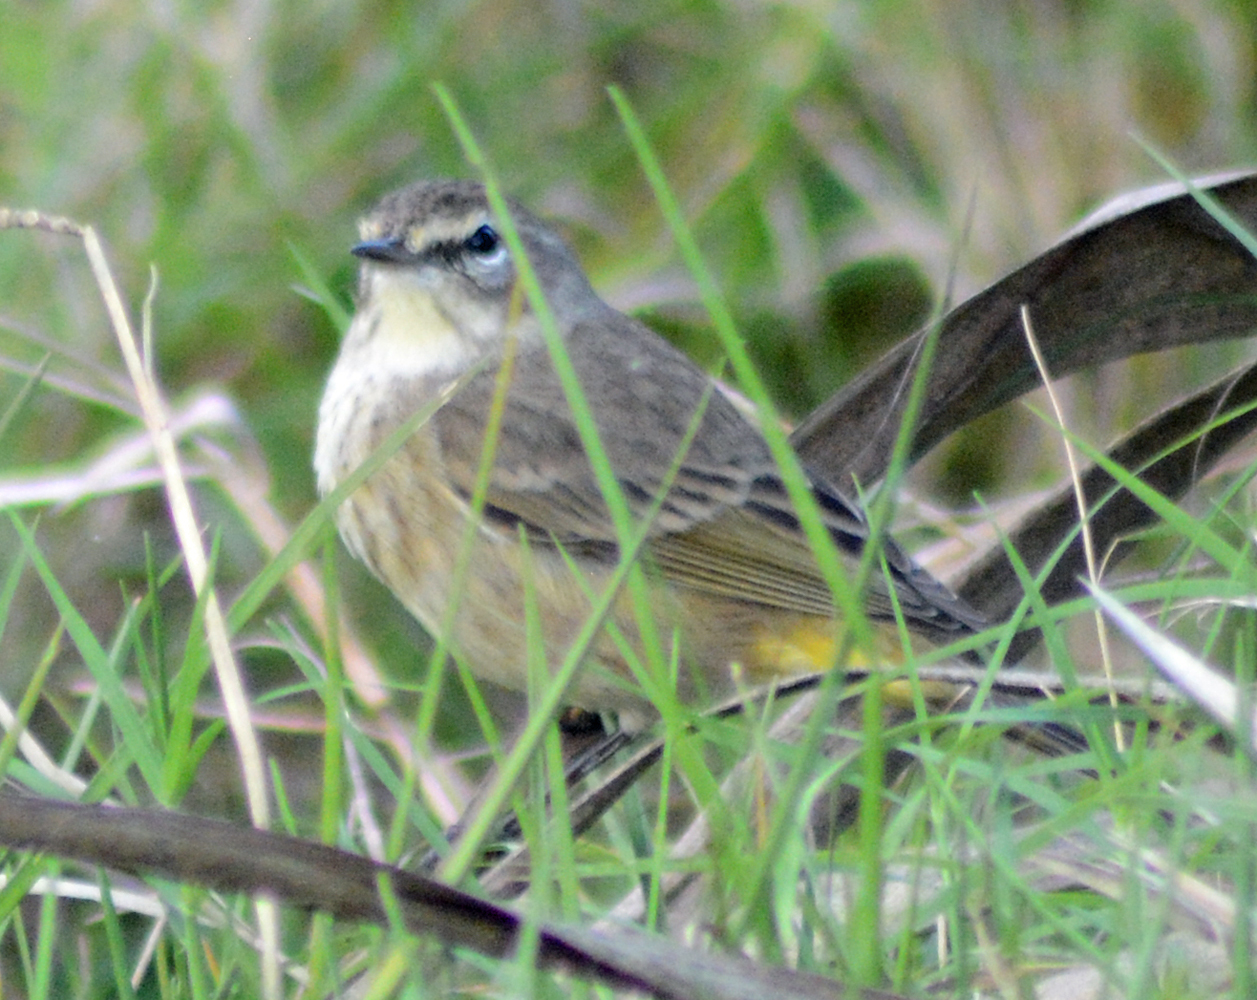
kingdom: Animalia
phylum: Chordata
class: Aves
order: Passeriformes
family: Parulidae
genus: Setophaga
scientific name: Setophaga palmarum
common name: Palm warbler
